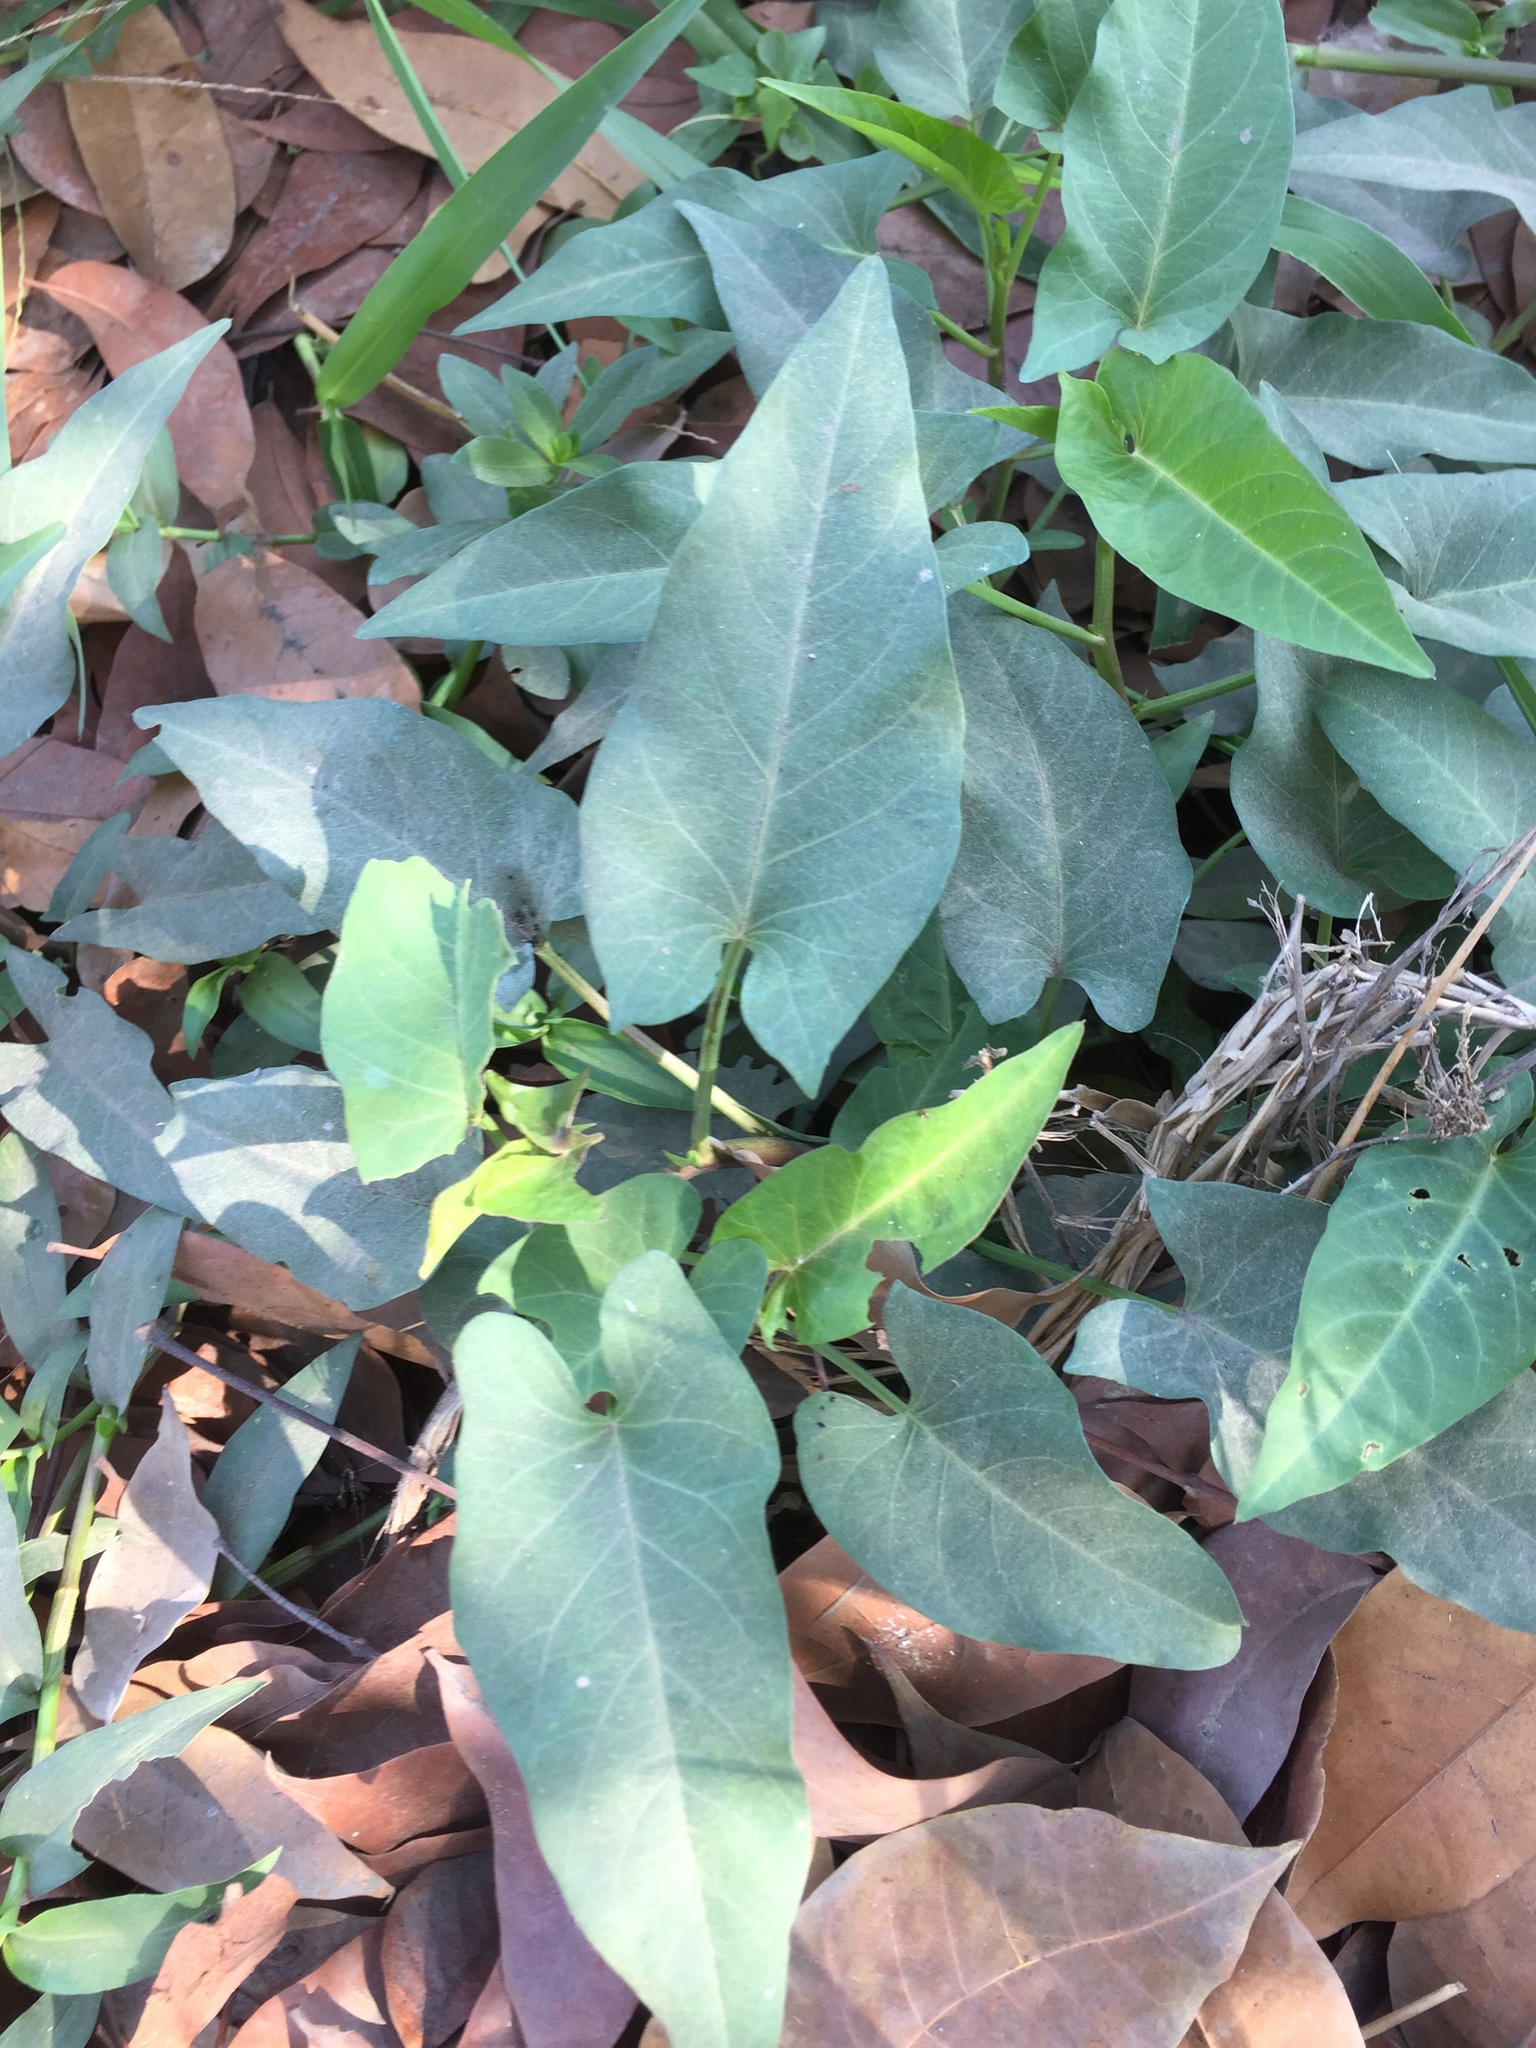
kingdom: Plantae
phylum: Tracheophyta
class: Magnoliopsida
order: Solanales
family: Convolvulaceae
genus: Ipomoea
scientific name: Ipomoea batatas
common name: Sweet-potato
